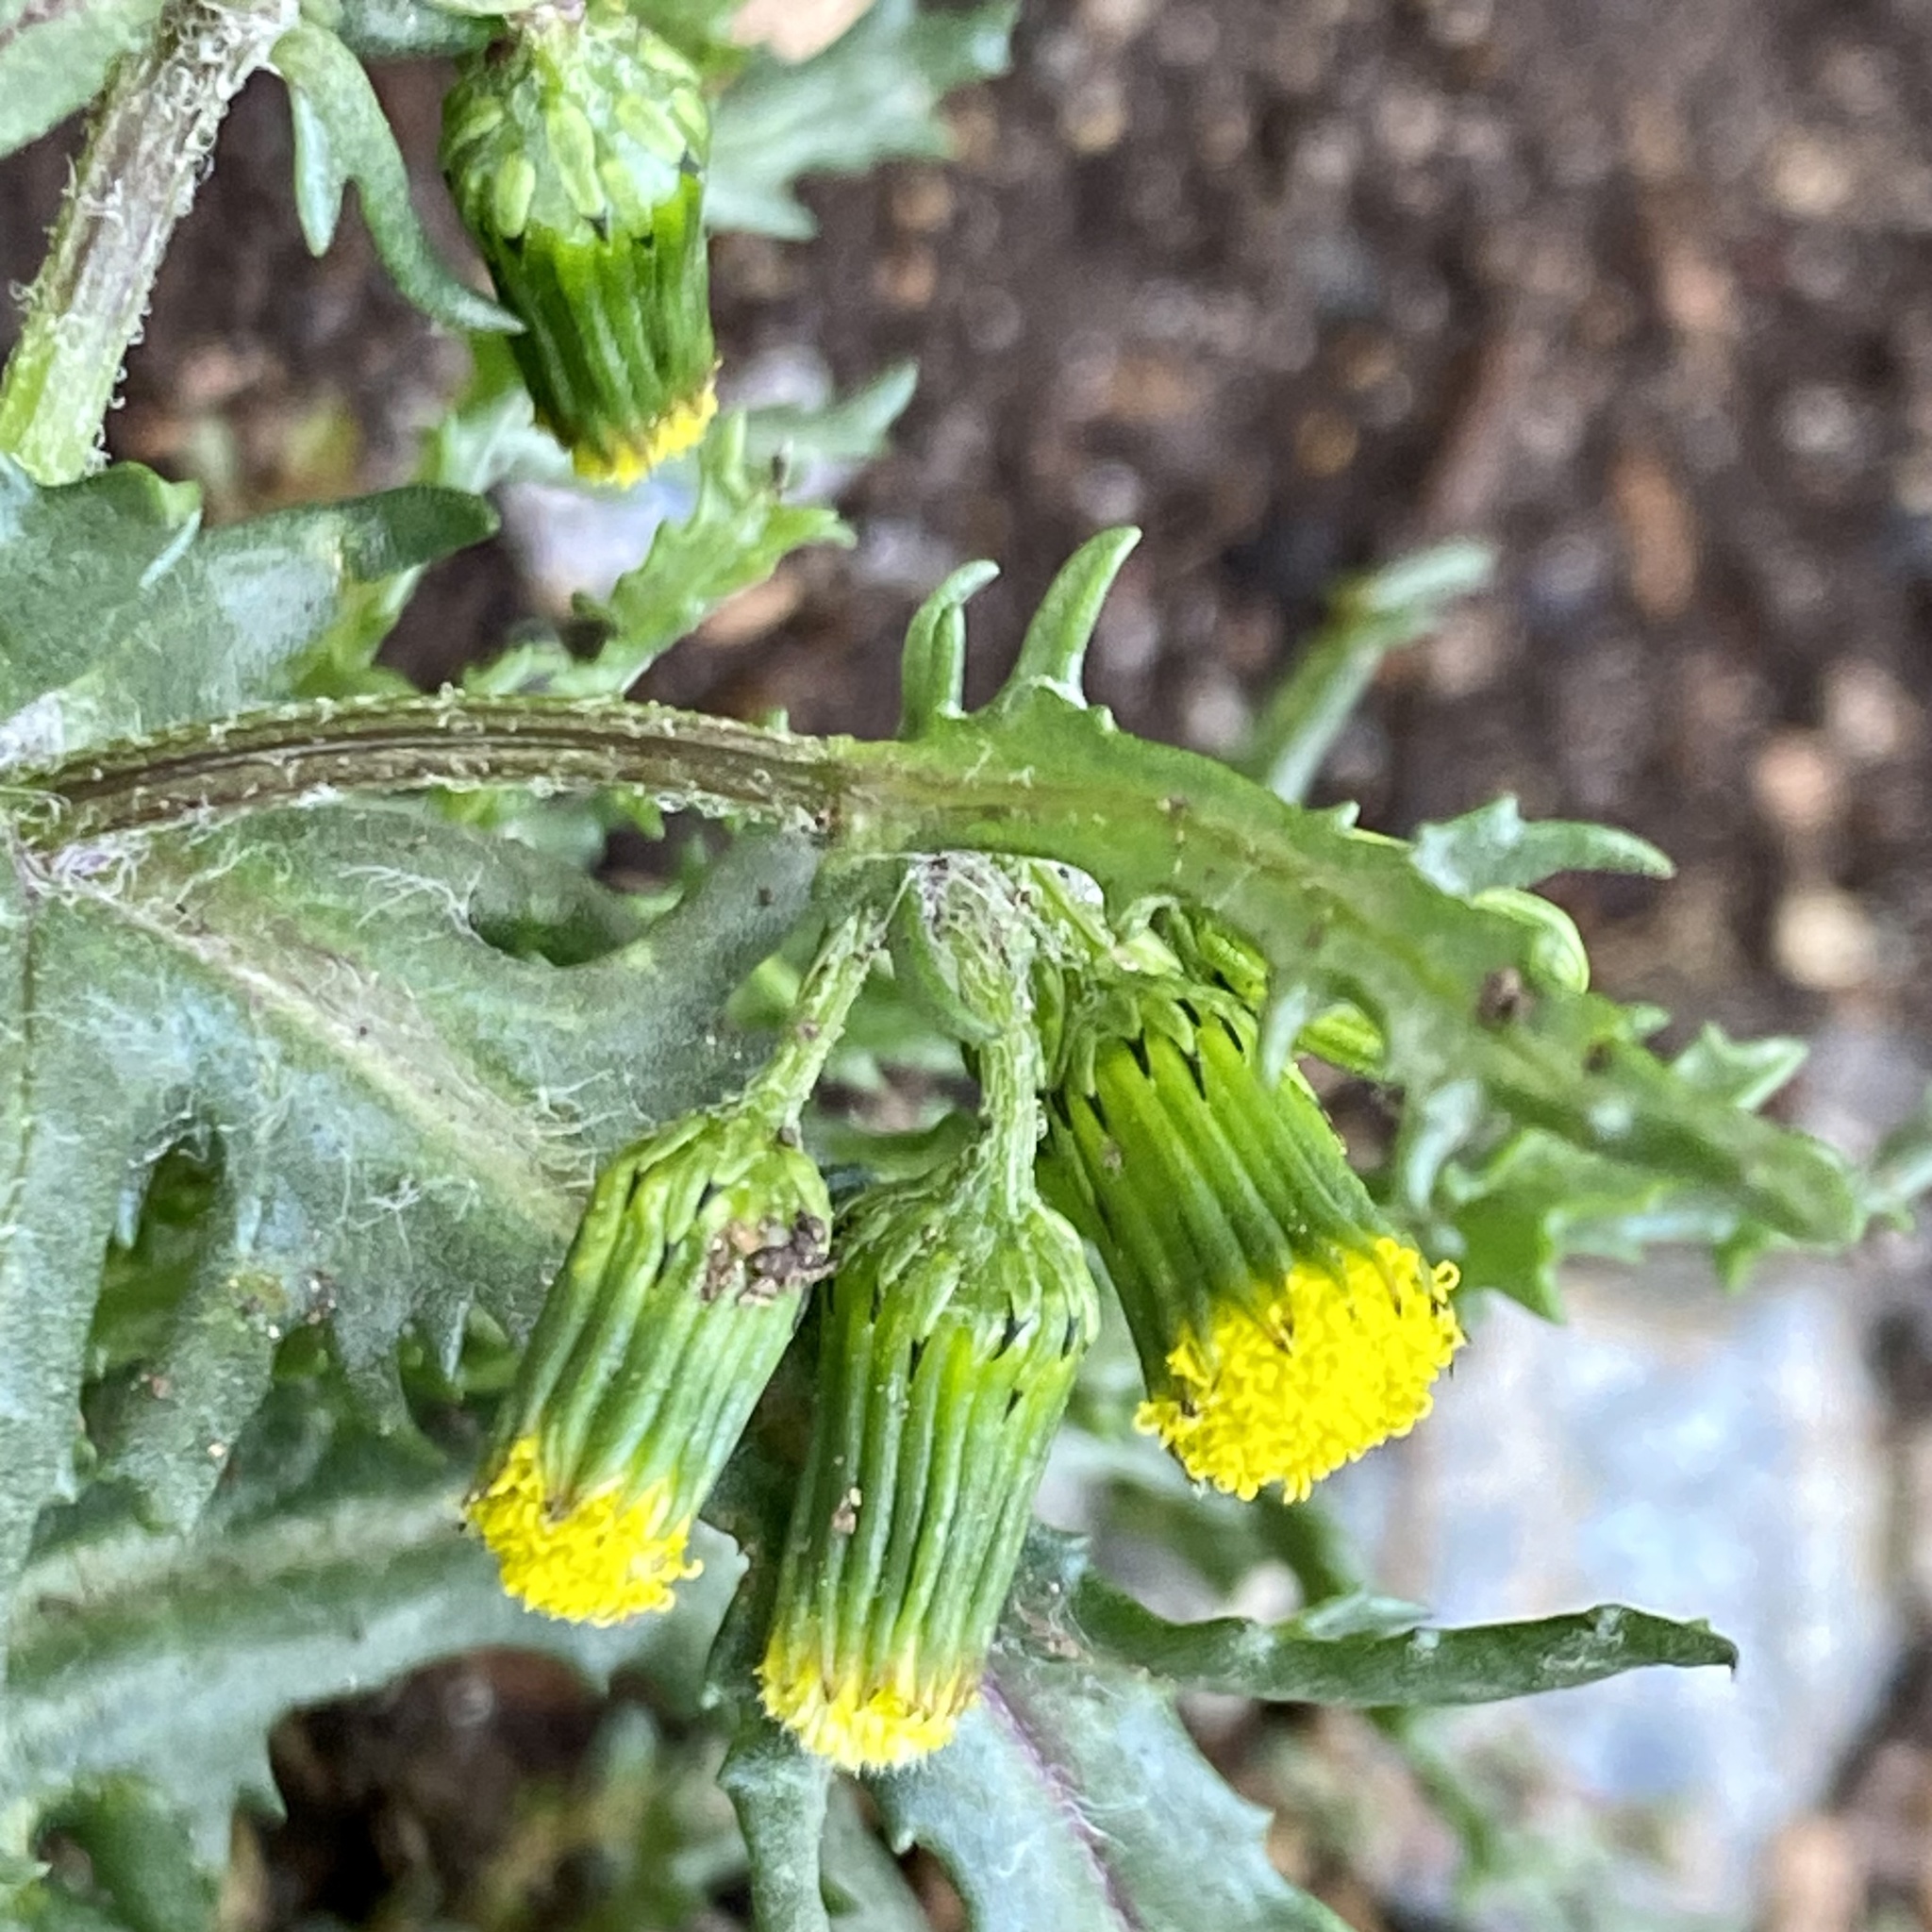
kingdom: Plantae
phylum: Tracheophyta
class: Magnoliopsida
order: Asterales
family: Asteraceae
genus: Senecio
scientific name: Senecio vulgaris
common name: Old-man-in-the-spring
